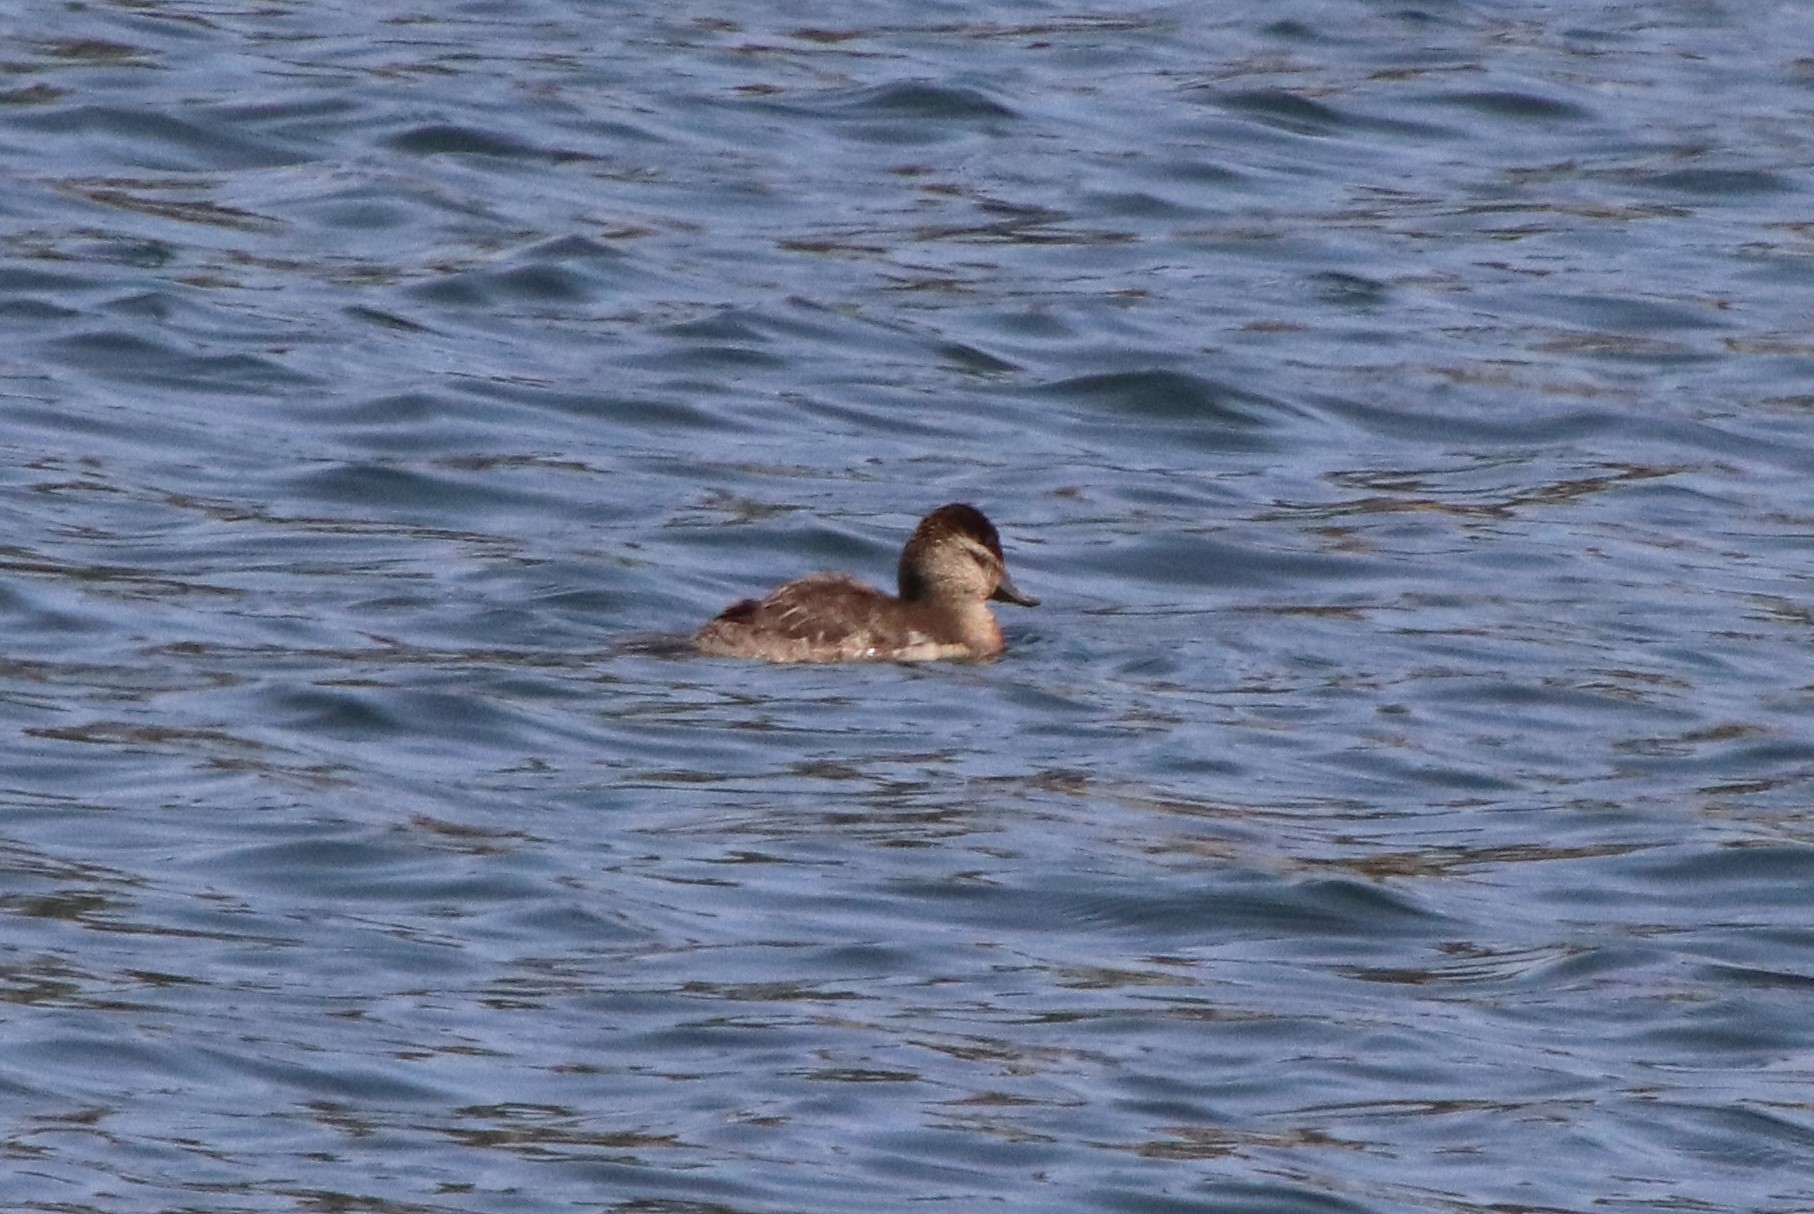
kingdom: Animalia
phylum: Chordata
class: Aves
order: Anseriformes
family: Anatidae
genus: Oxyura
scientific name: Oxyura jamaicensis
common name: Ruddy duck
